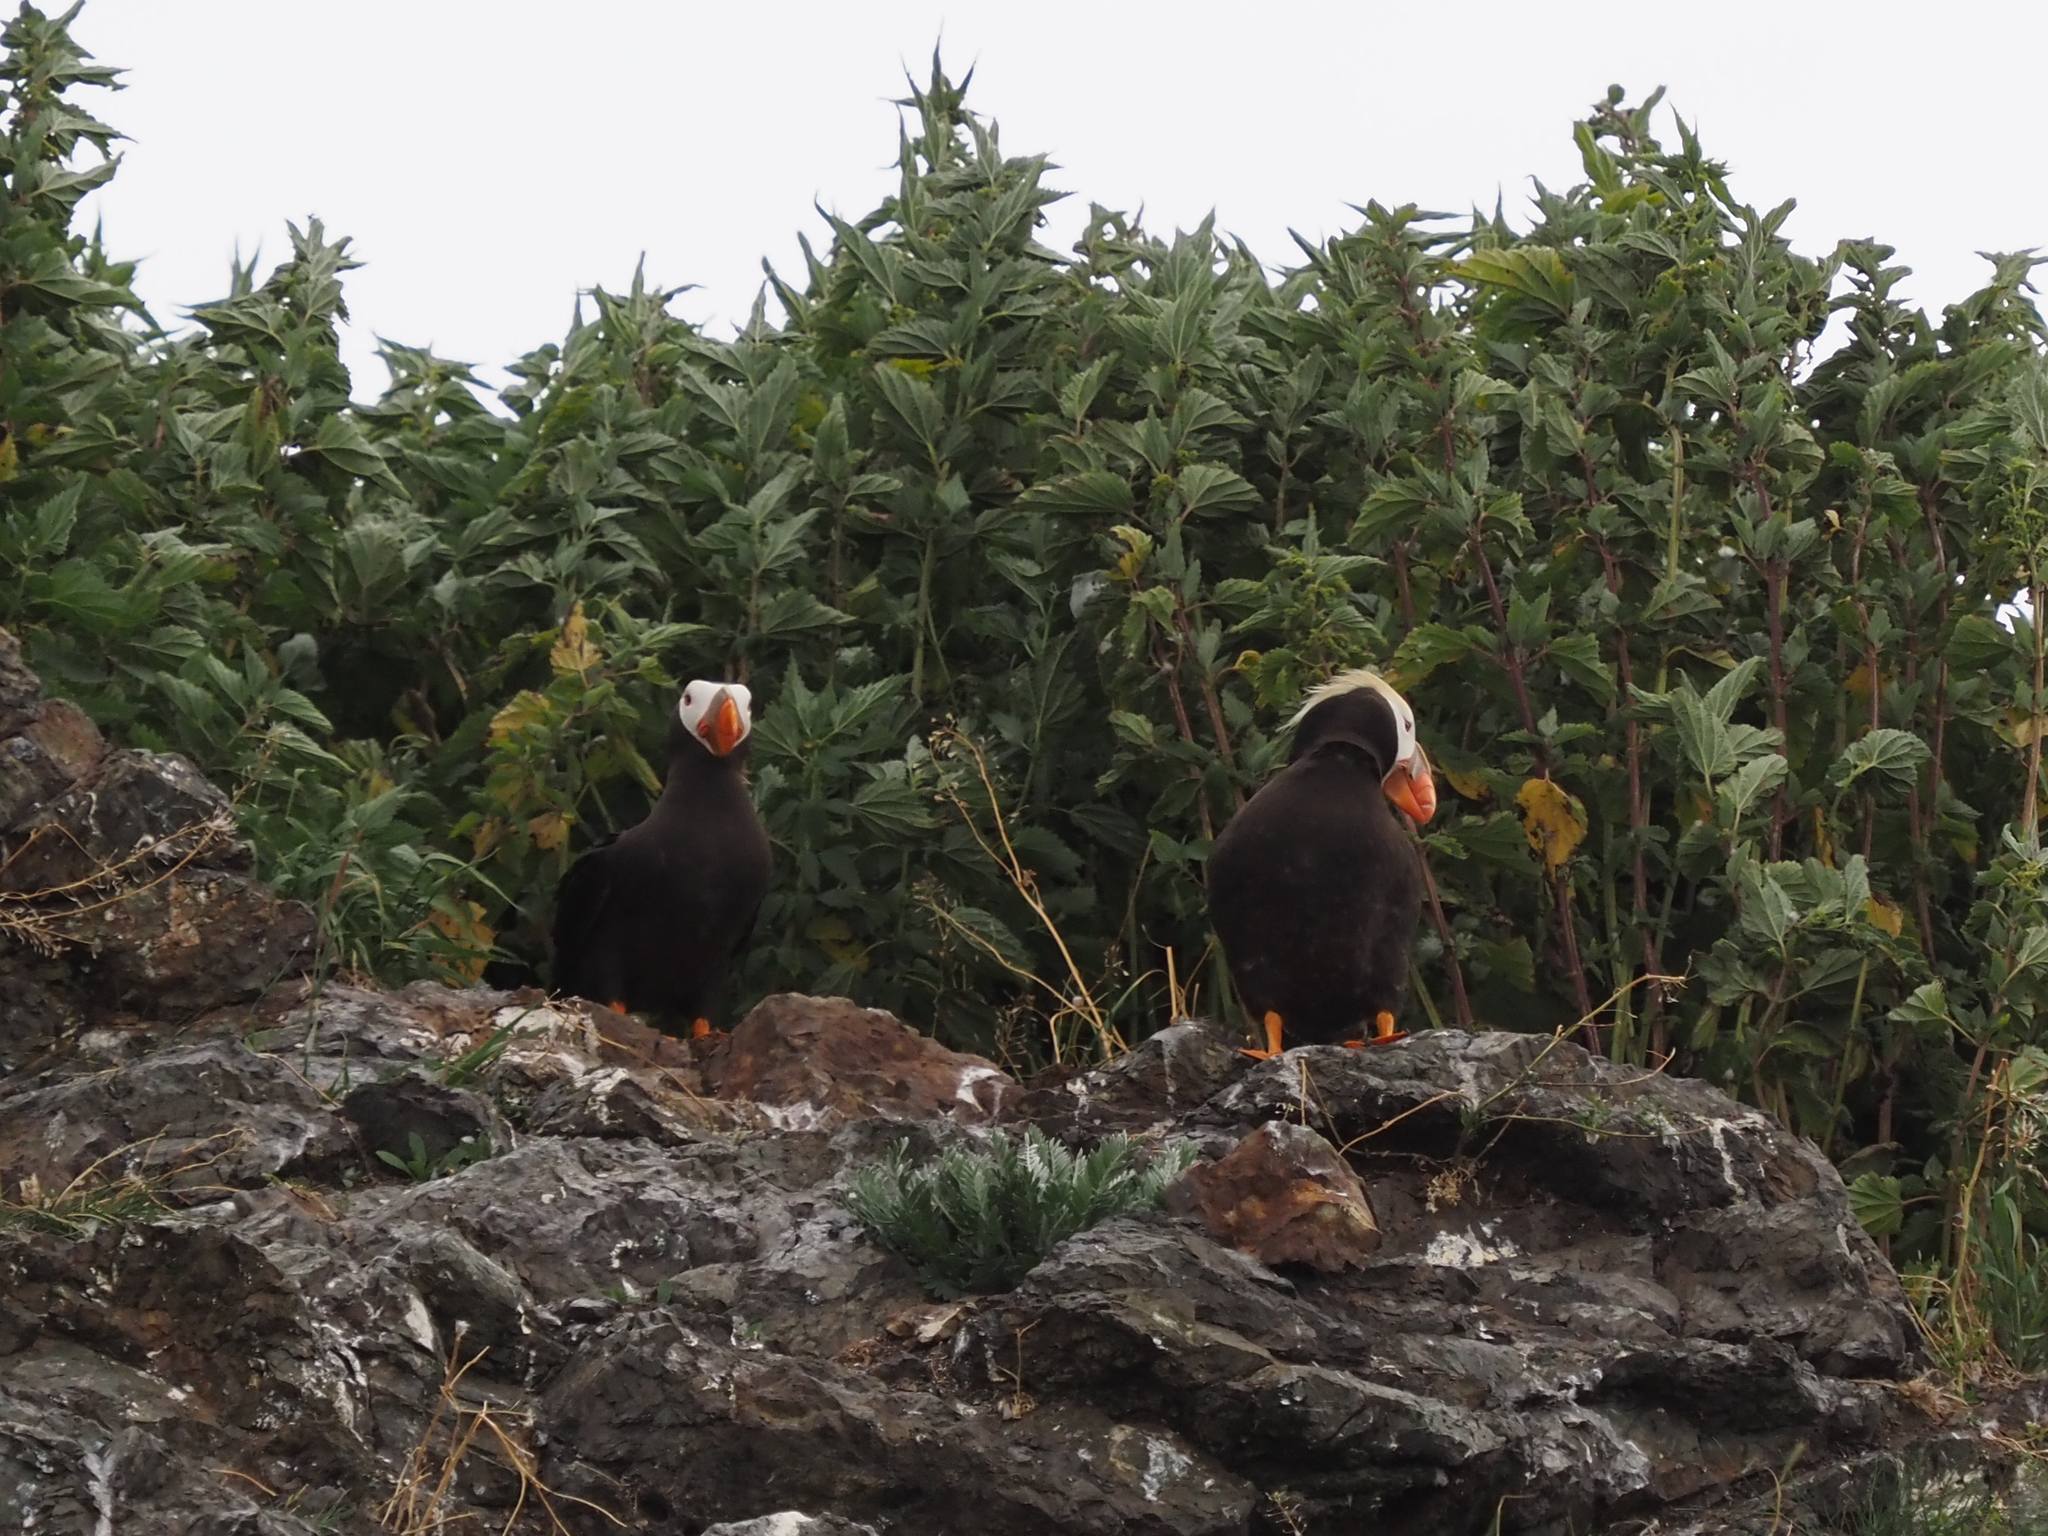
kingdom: Animalia
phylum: Chordata
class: Aves
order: Charadriiformes
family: Alcidae
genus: Fratercula
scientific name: Fratercula cirrhata
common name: Tufted puffin
